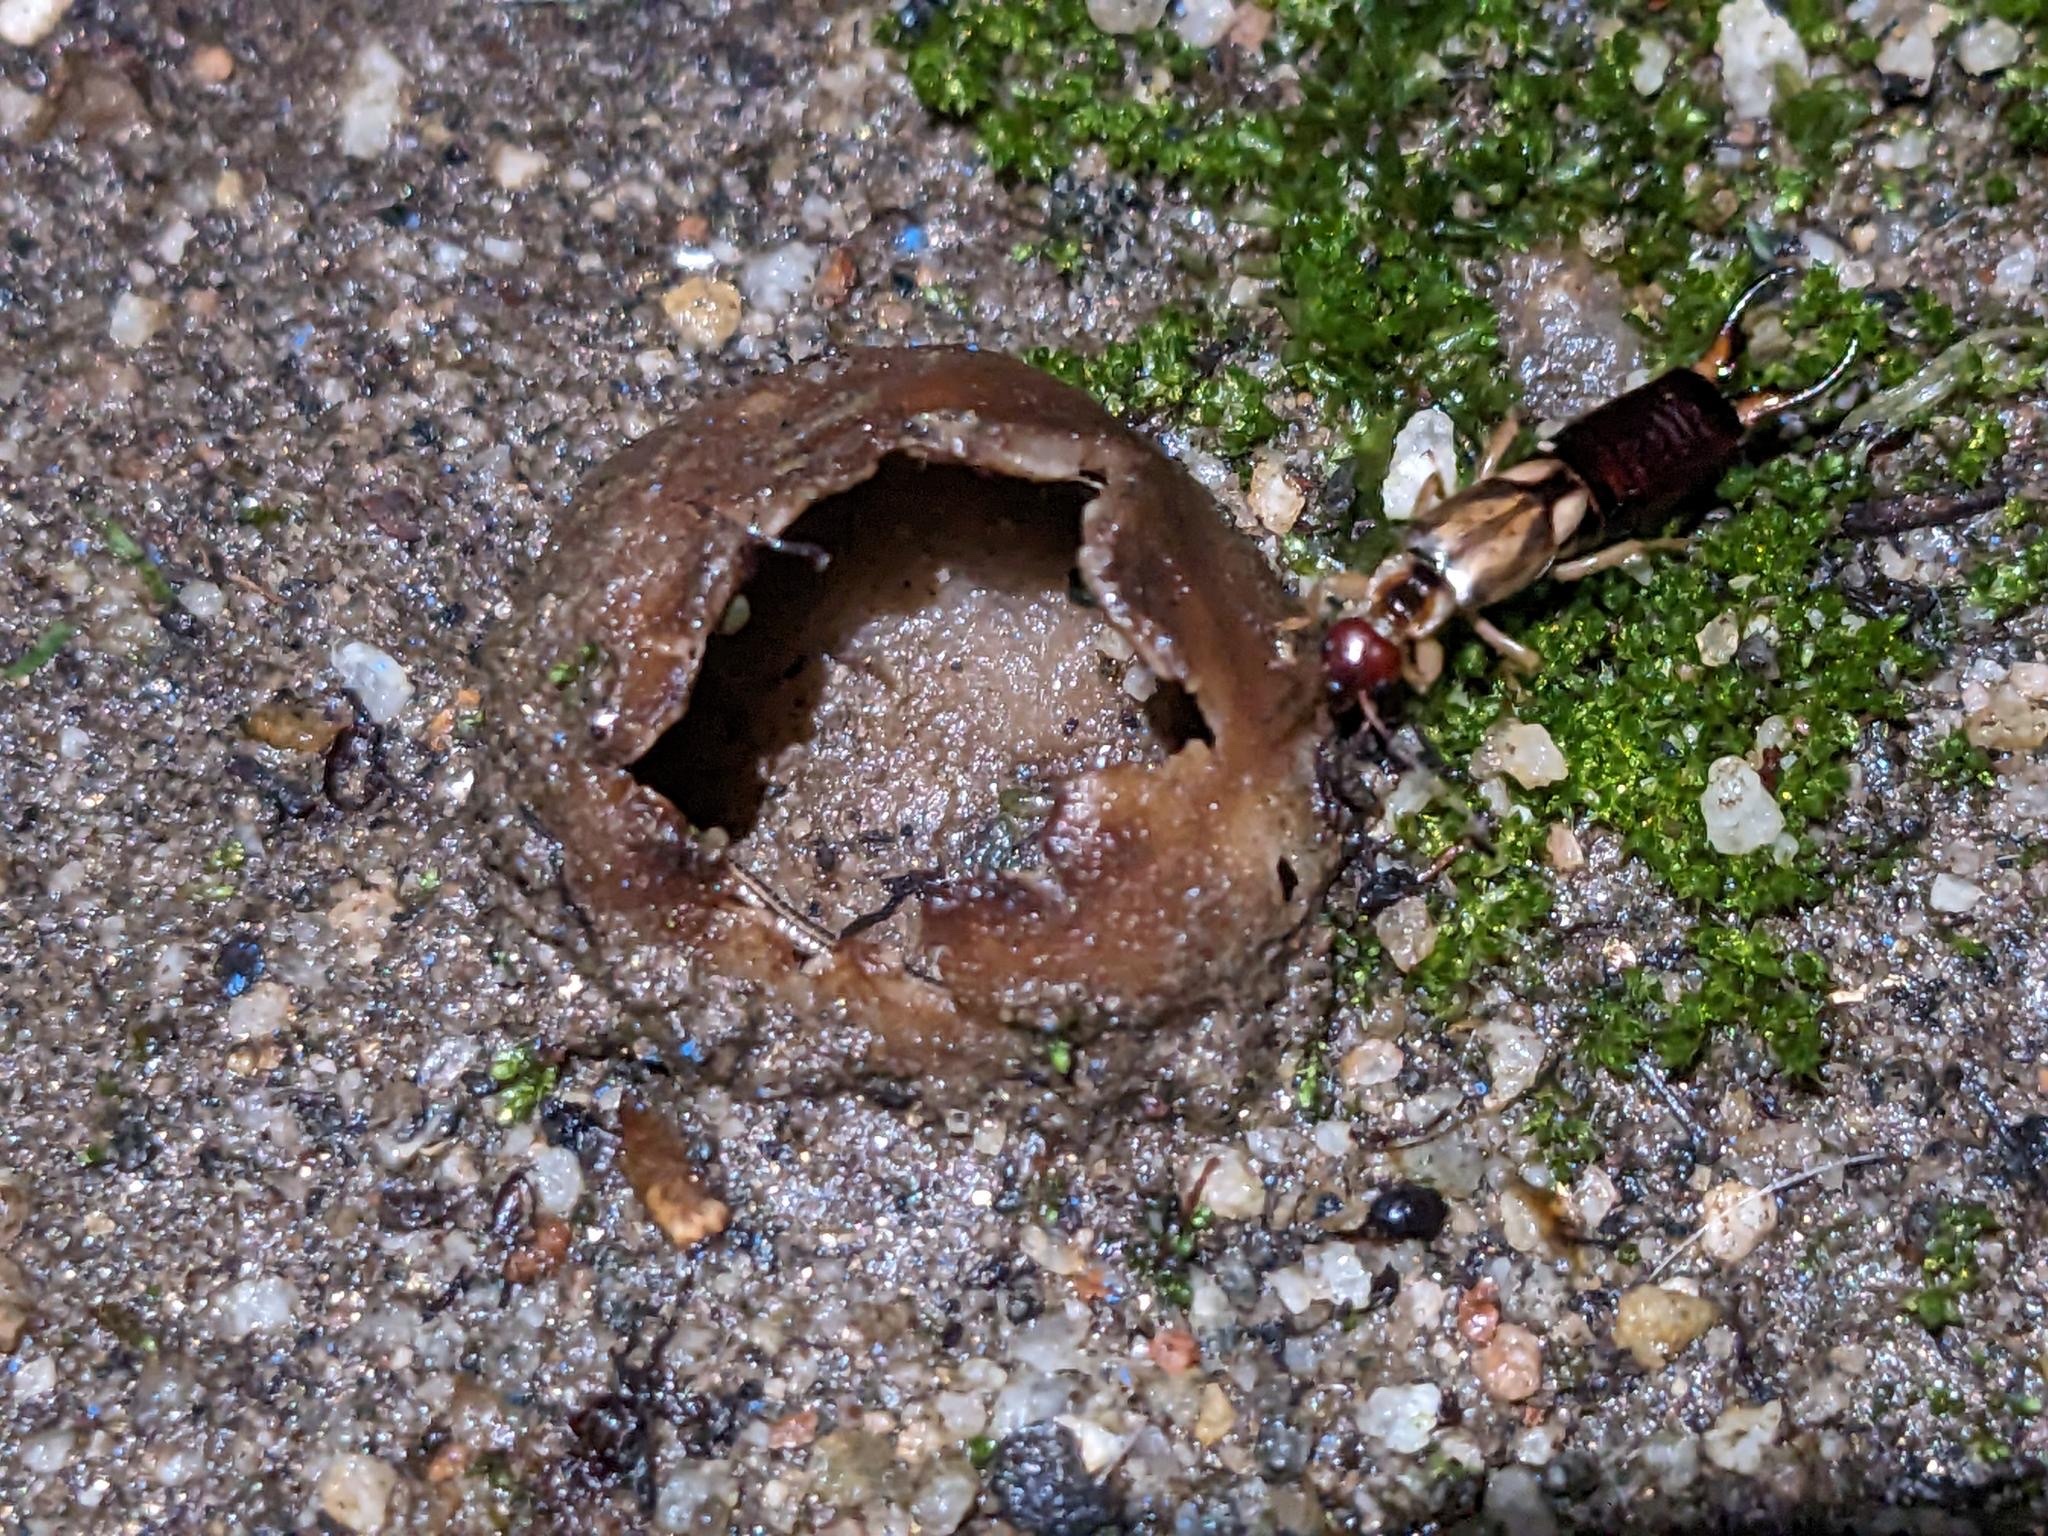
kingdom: Animalia
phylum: Arthropoda
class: Insecta
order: Dermaptera
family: Forficulidae
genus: Forficula
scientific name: Forficula dentata
